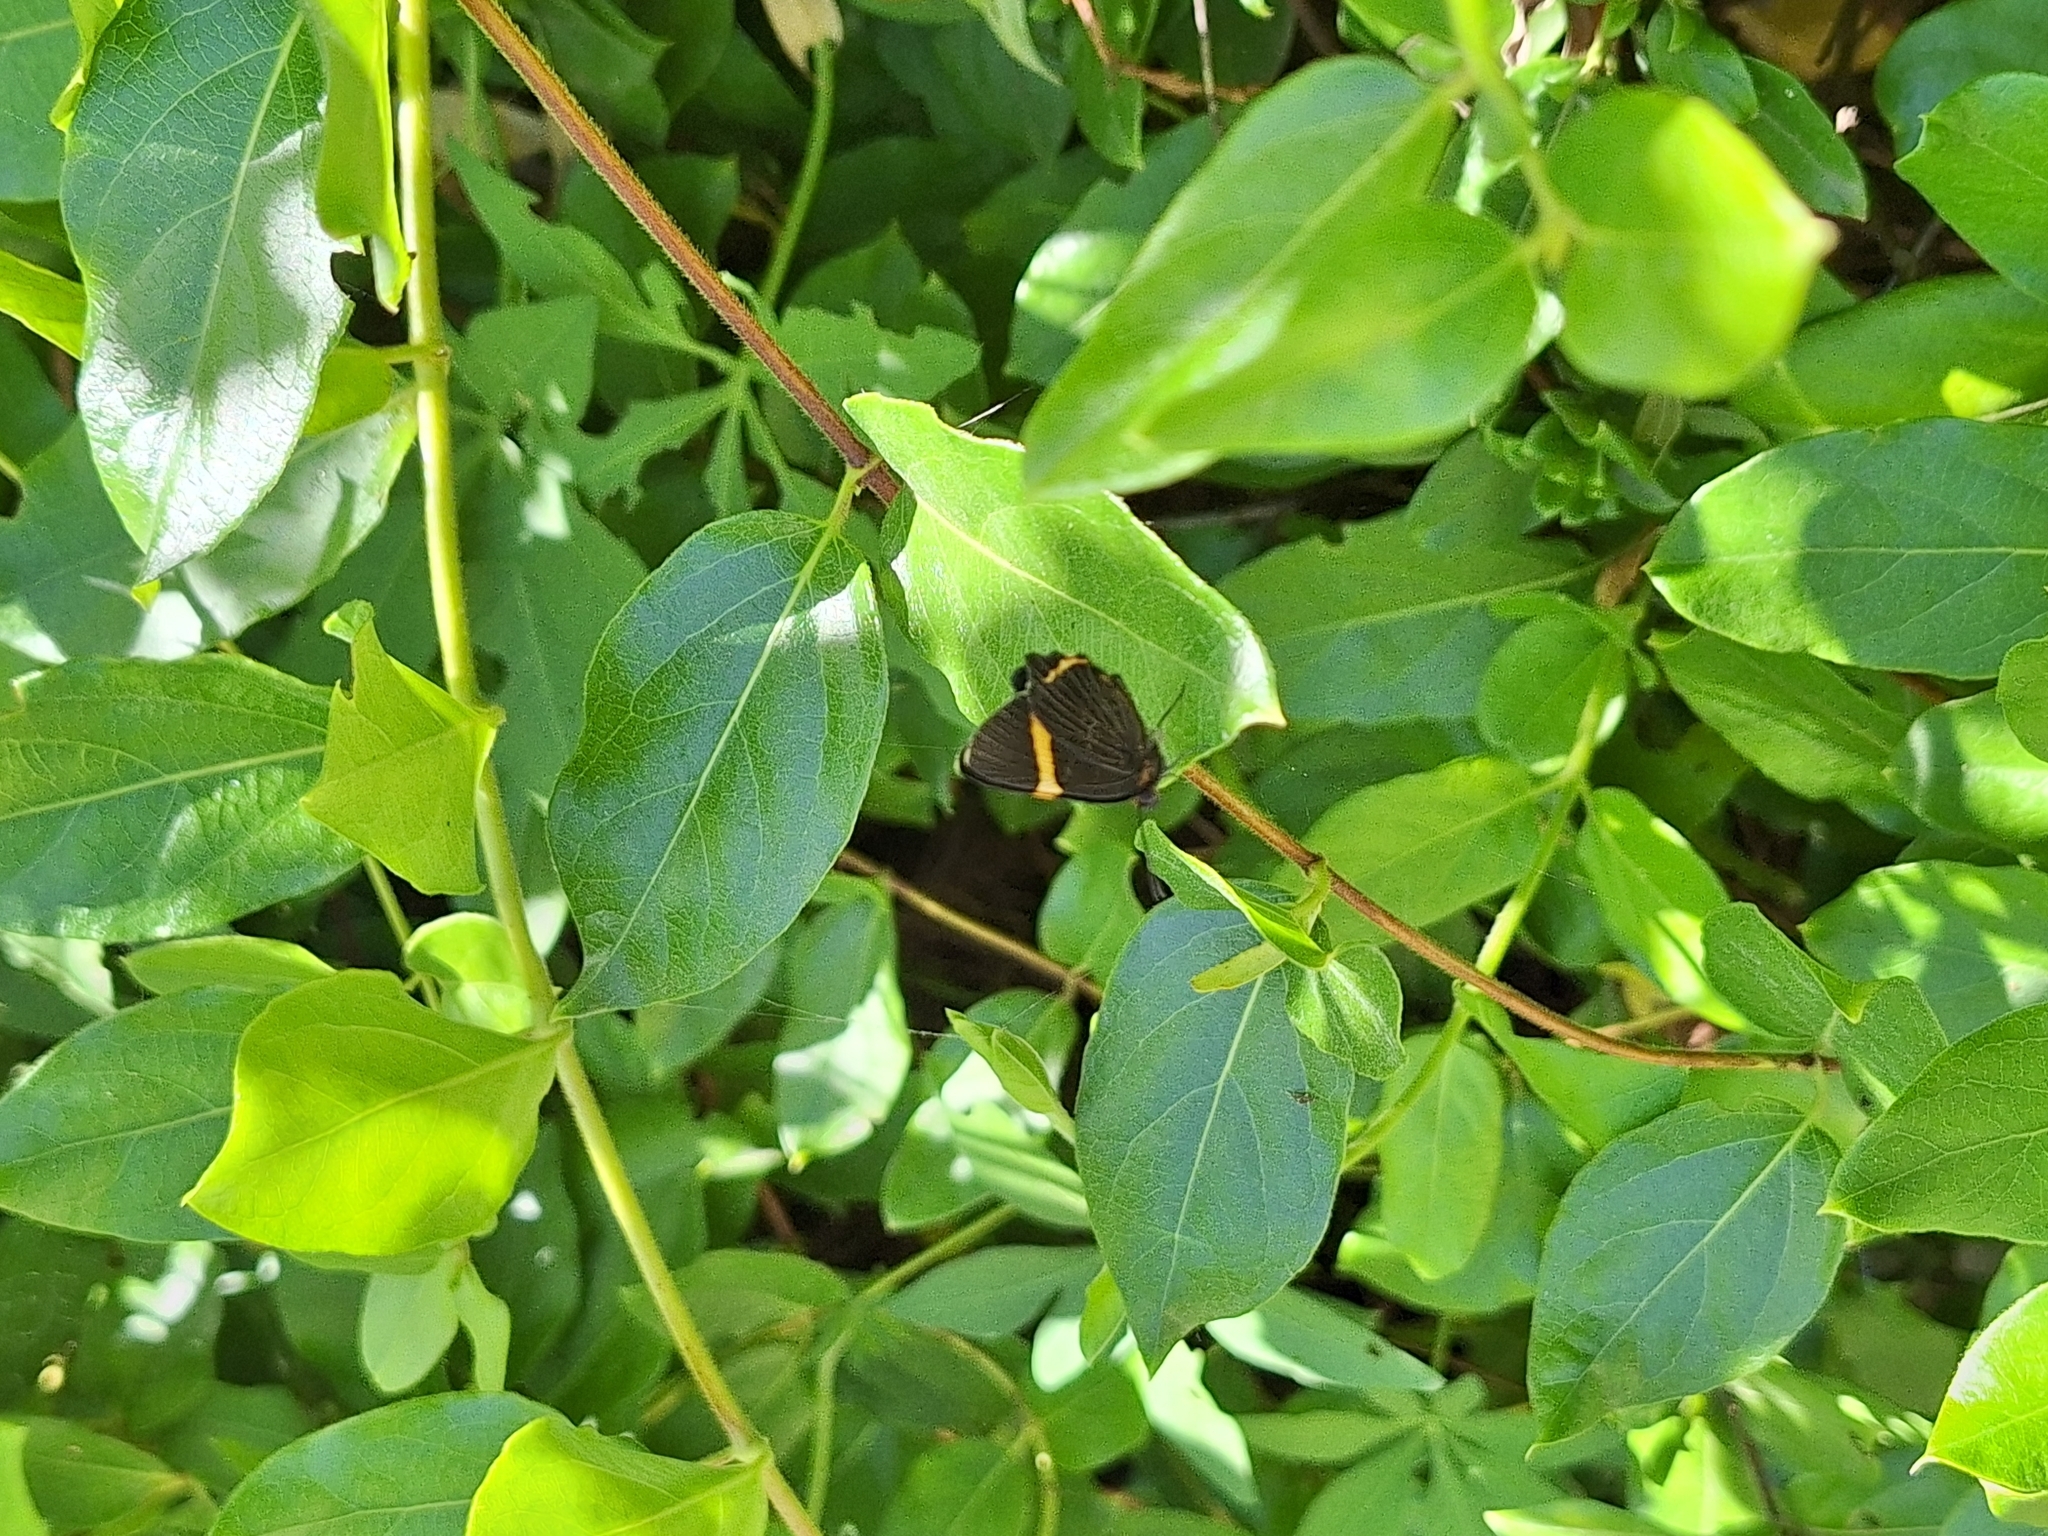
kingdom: Animalia
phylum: Arthropoda
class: Insecta
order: Lepidoptera
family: Riodinidae
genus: Riodina
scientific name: Riodina lysippoides
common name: Little dancer metalmark
